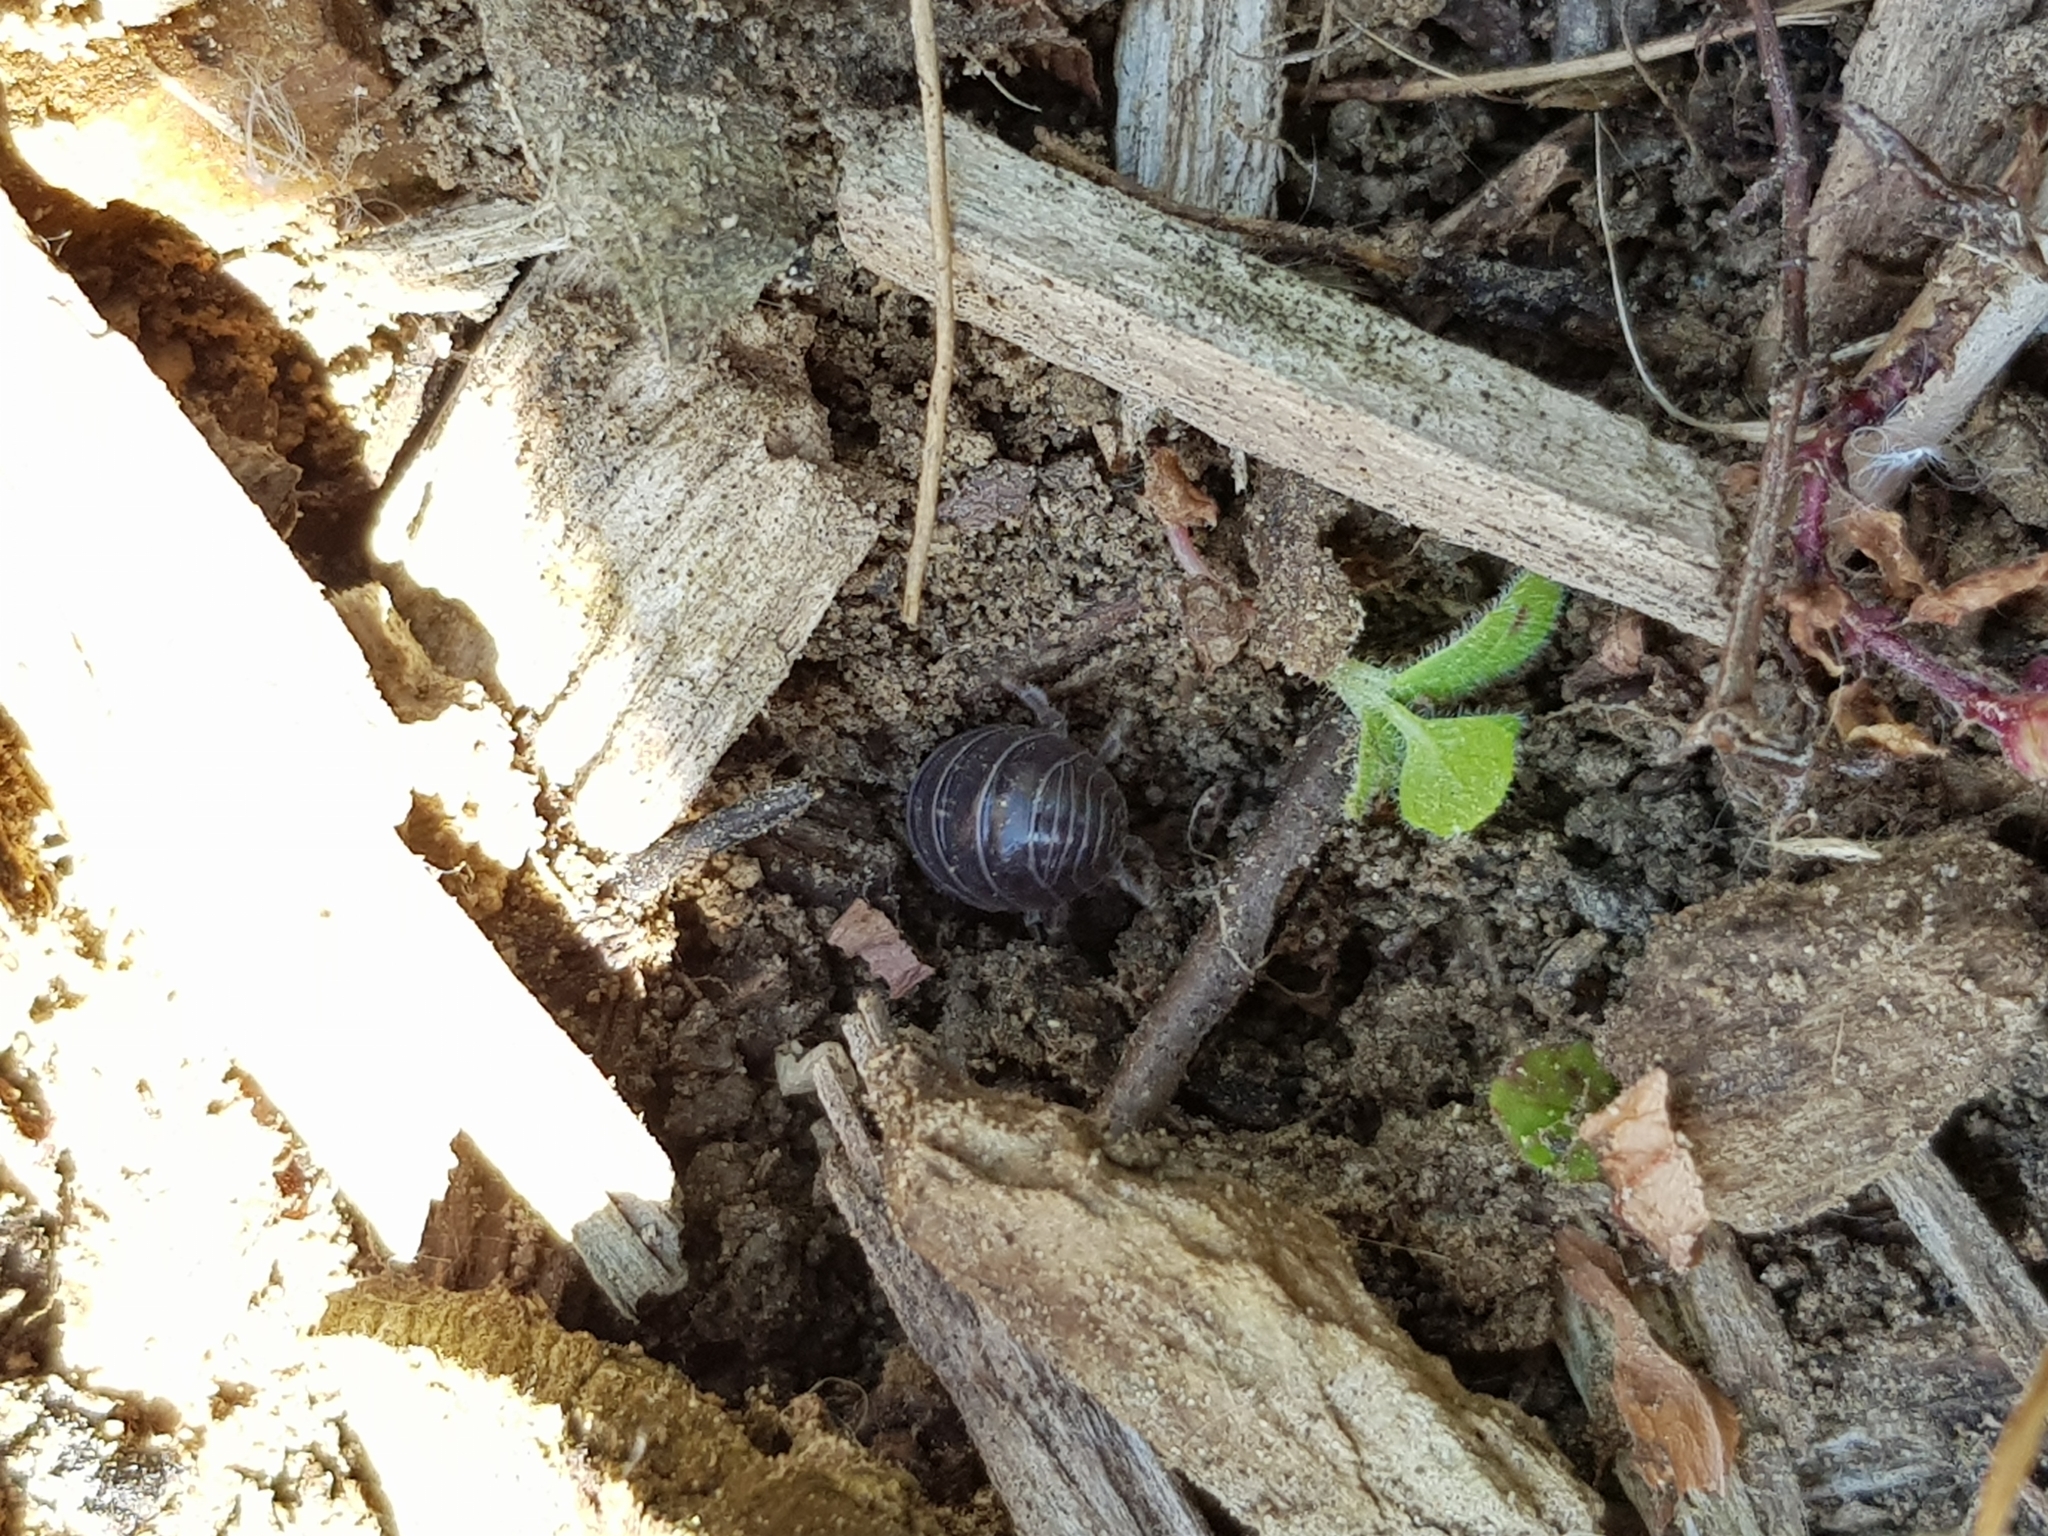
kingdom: Animalia
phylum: Arthropoda
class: Malacostraca
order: Isopoda
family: Armadillidiidae
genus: Armadillidium
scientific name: Armadillidium vulgare
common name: Common pill woodlouse
